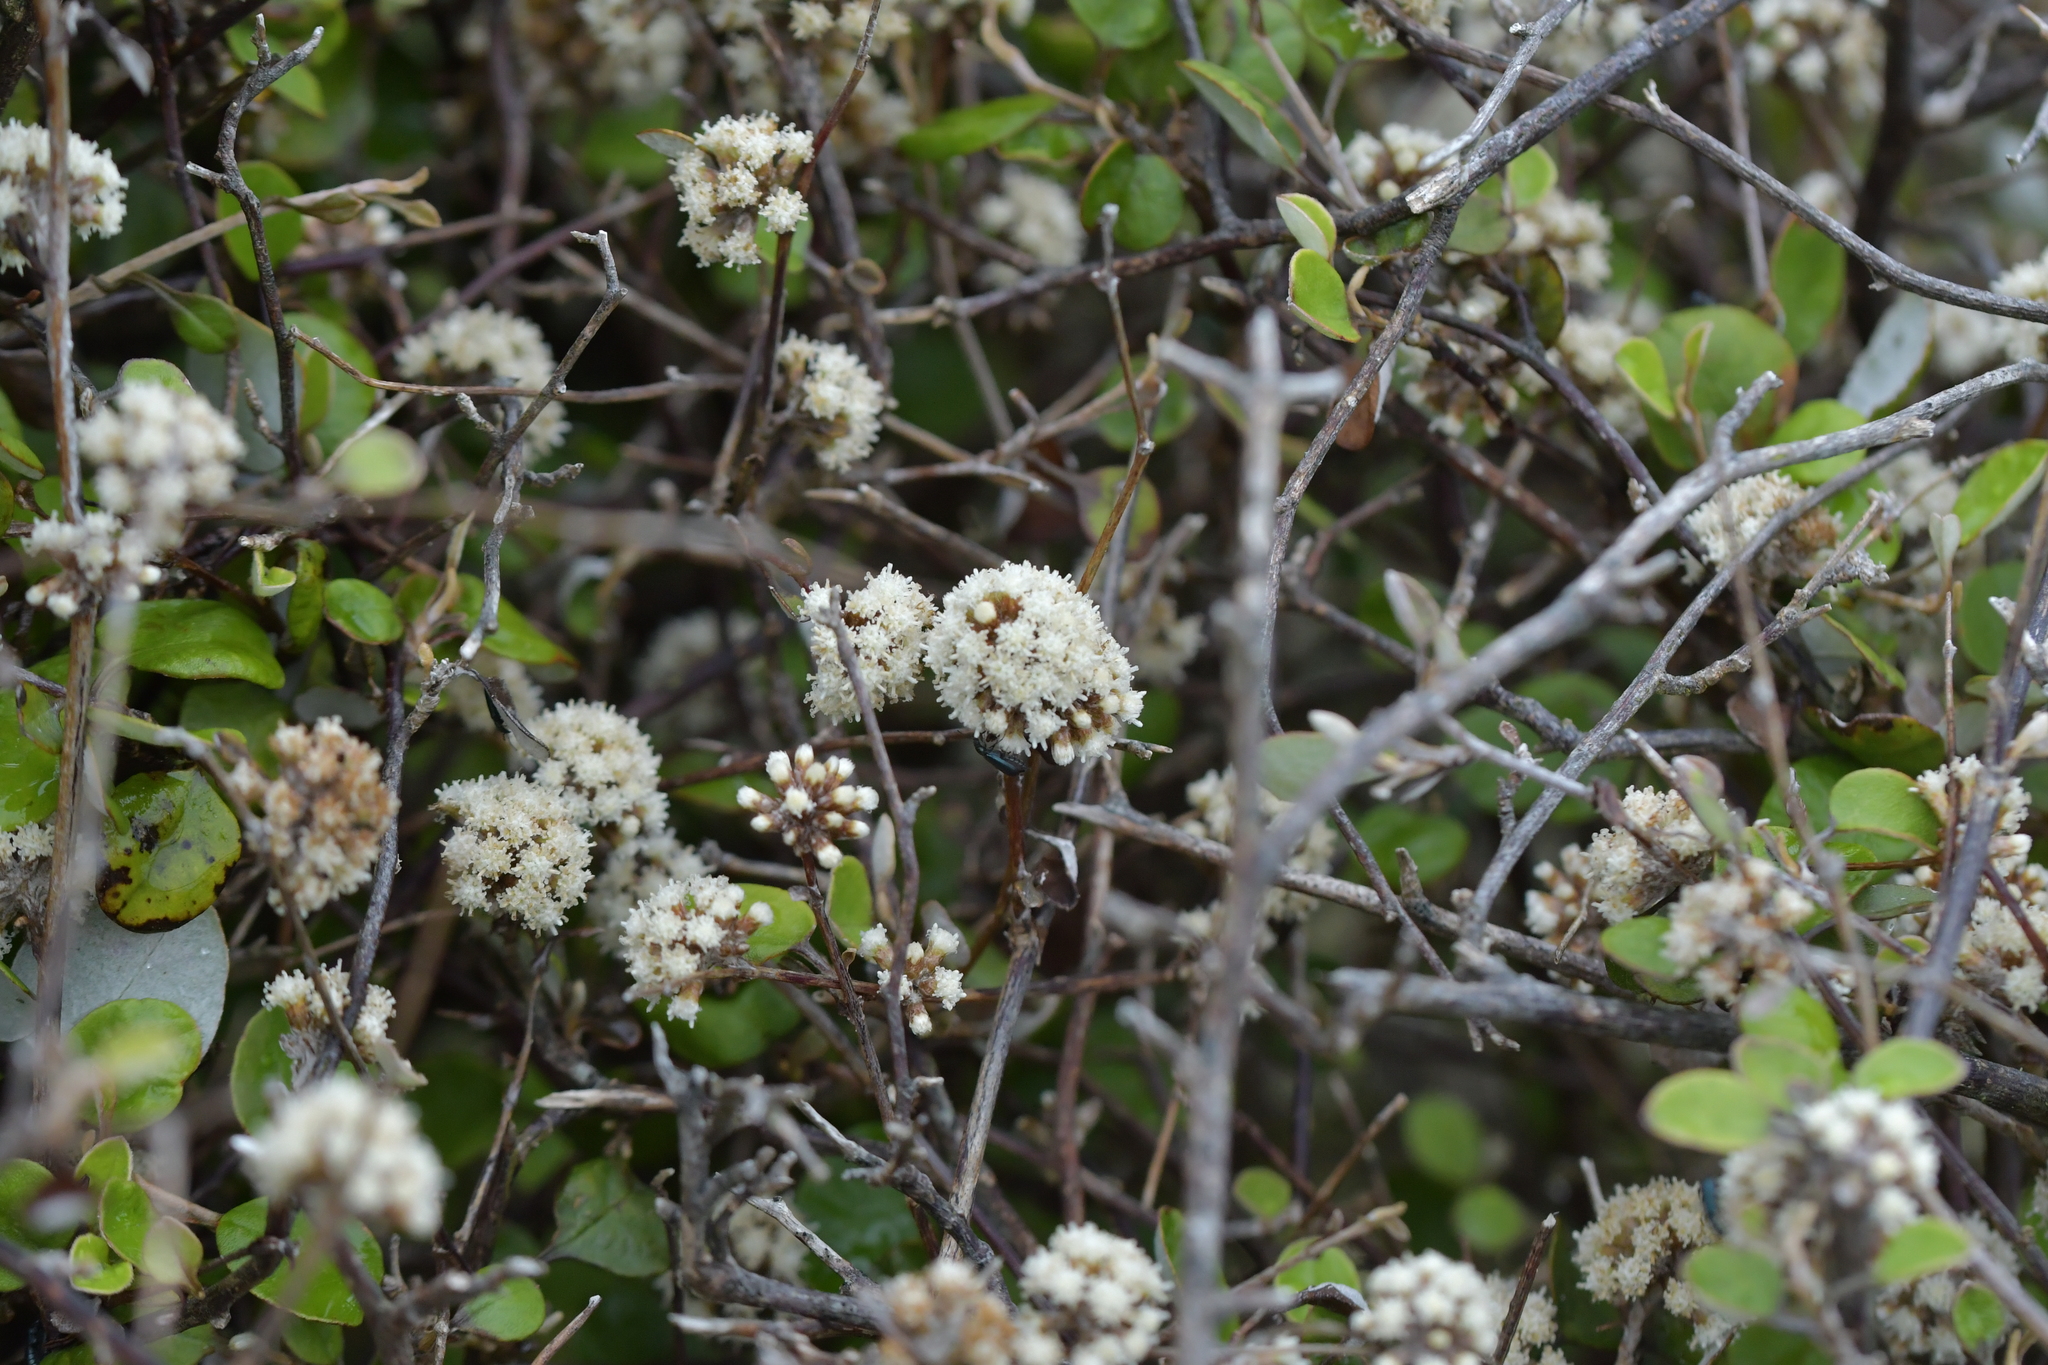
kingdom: Plantae
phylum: Tracheophyta
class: Magnoliopsida
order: Asterales
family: Asteraceae
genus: Ozothamnus
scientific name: Ozothamnus glomeratus
